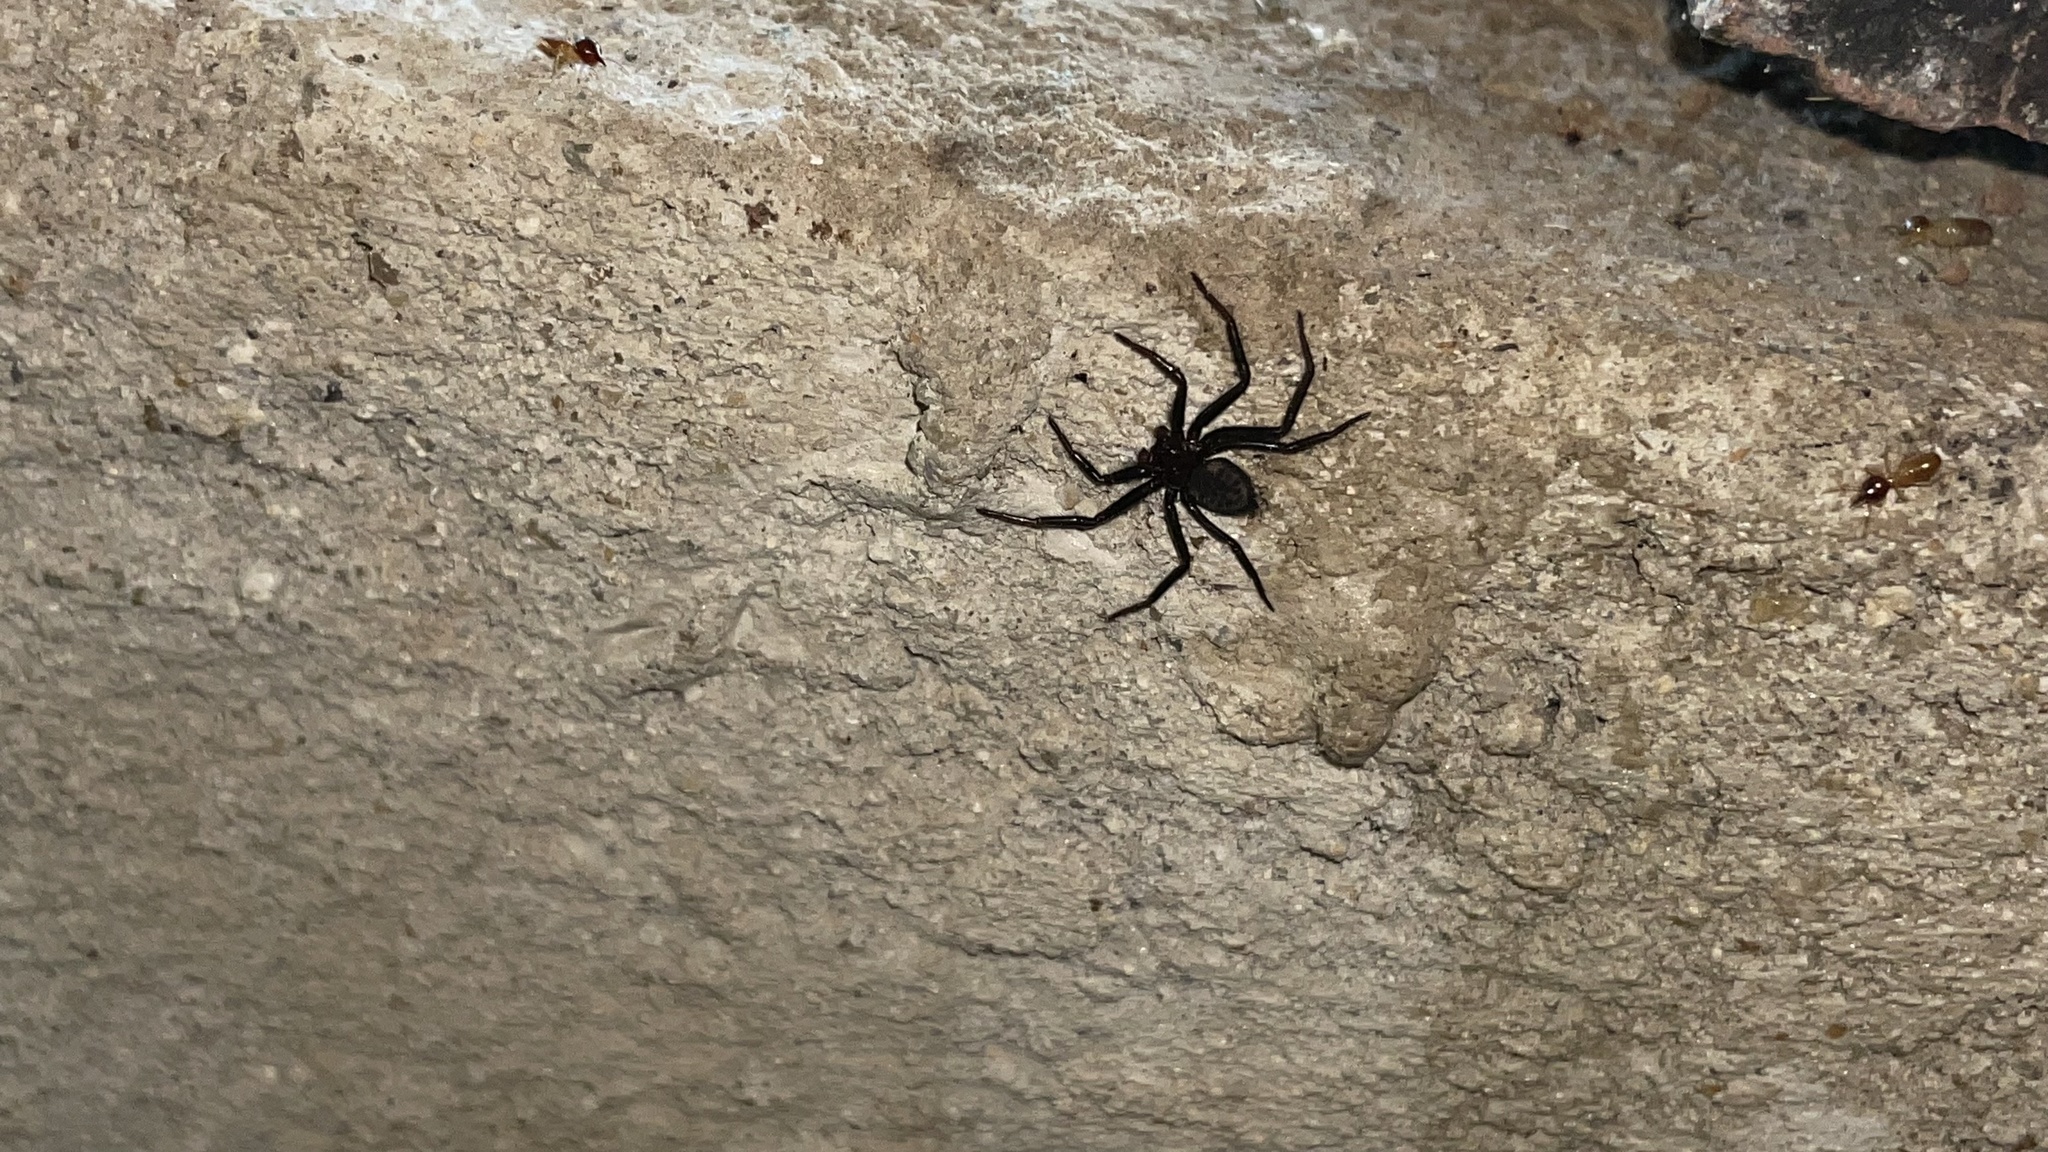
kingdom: Animalia
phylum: Arthropoda
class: Arachnida
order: Araneae
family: Trochanteriidae
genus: Vectius
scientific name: Vectius niger
